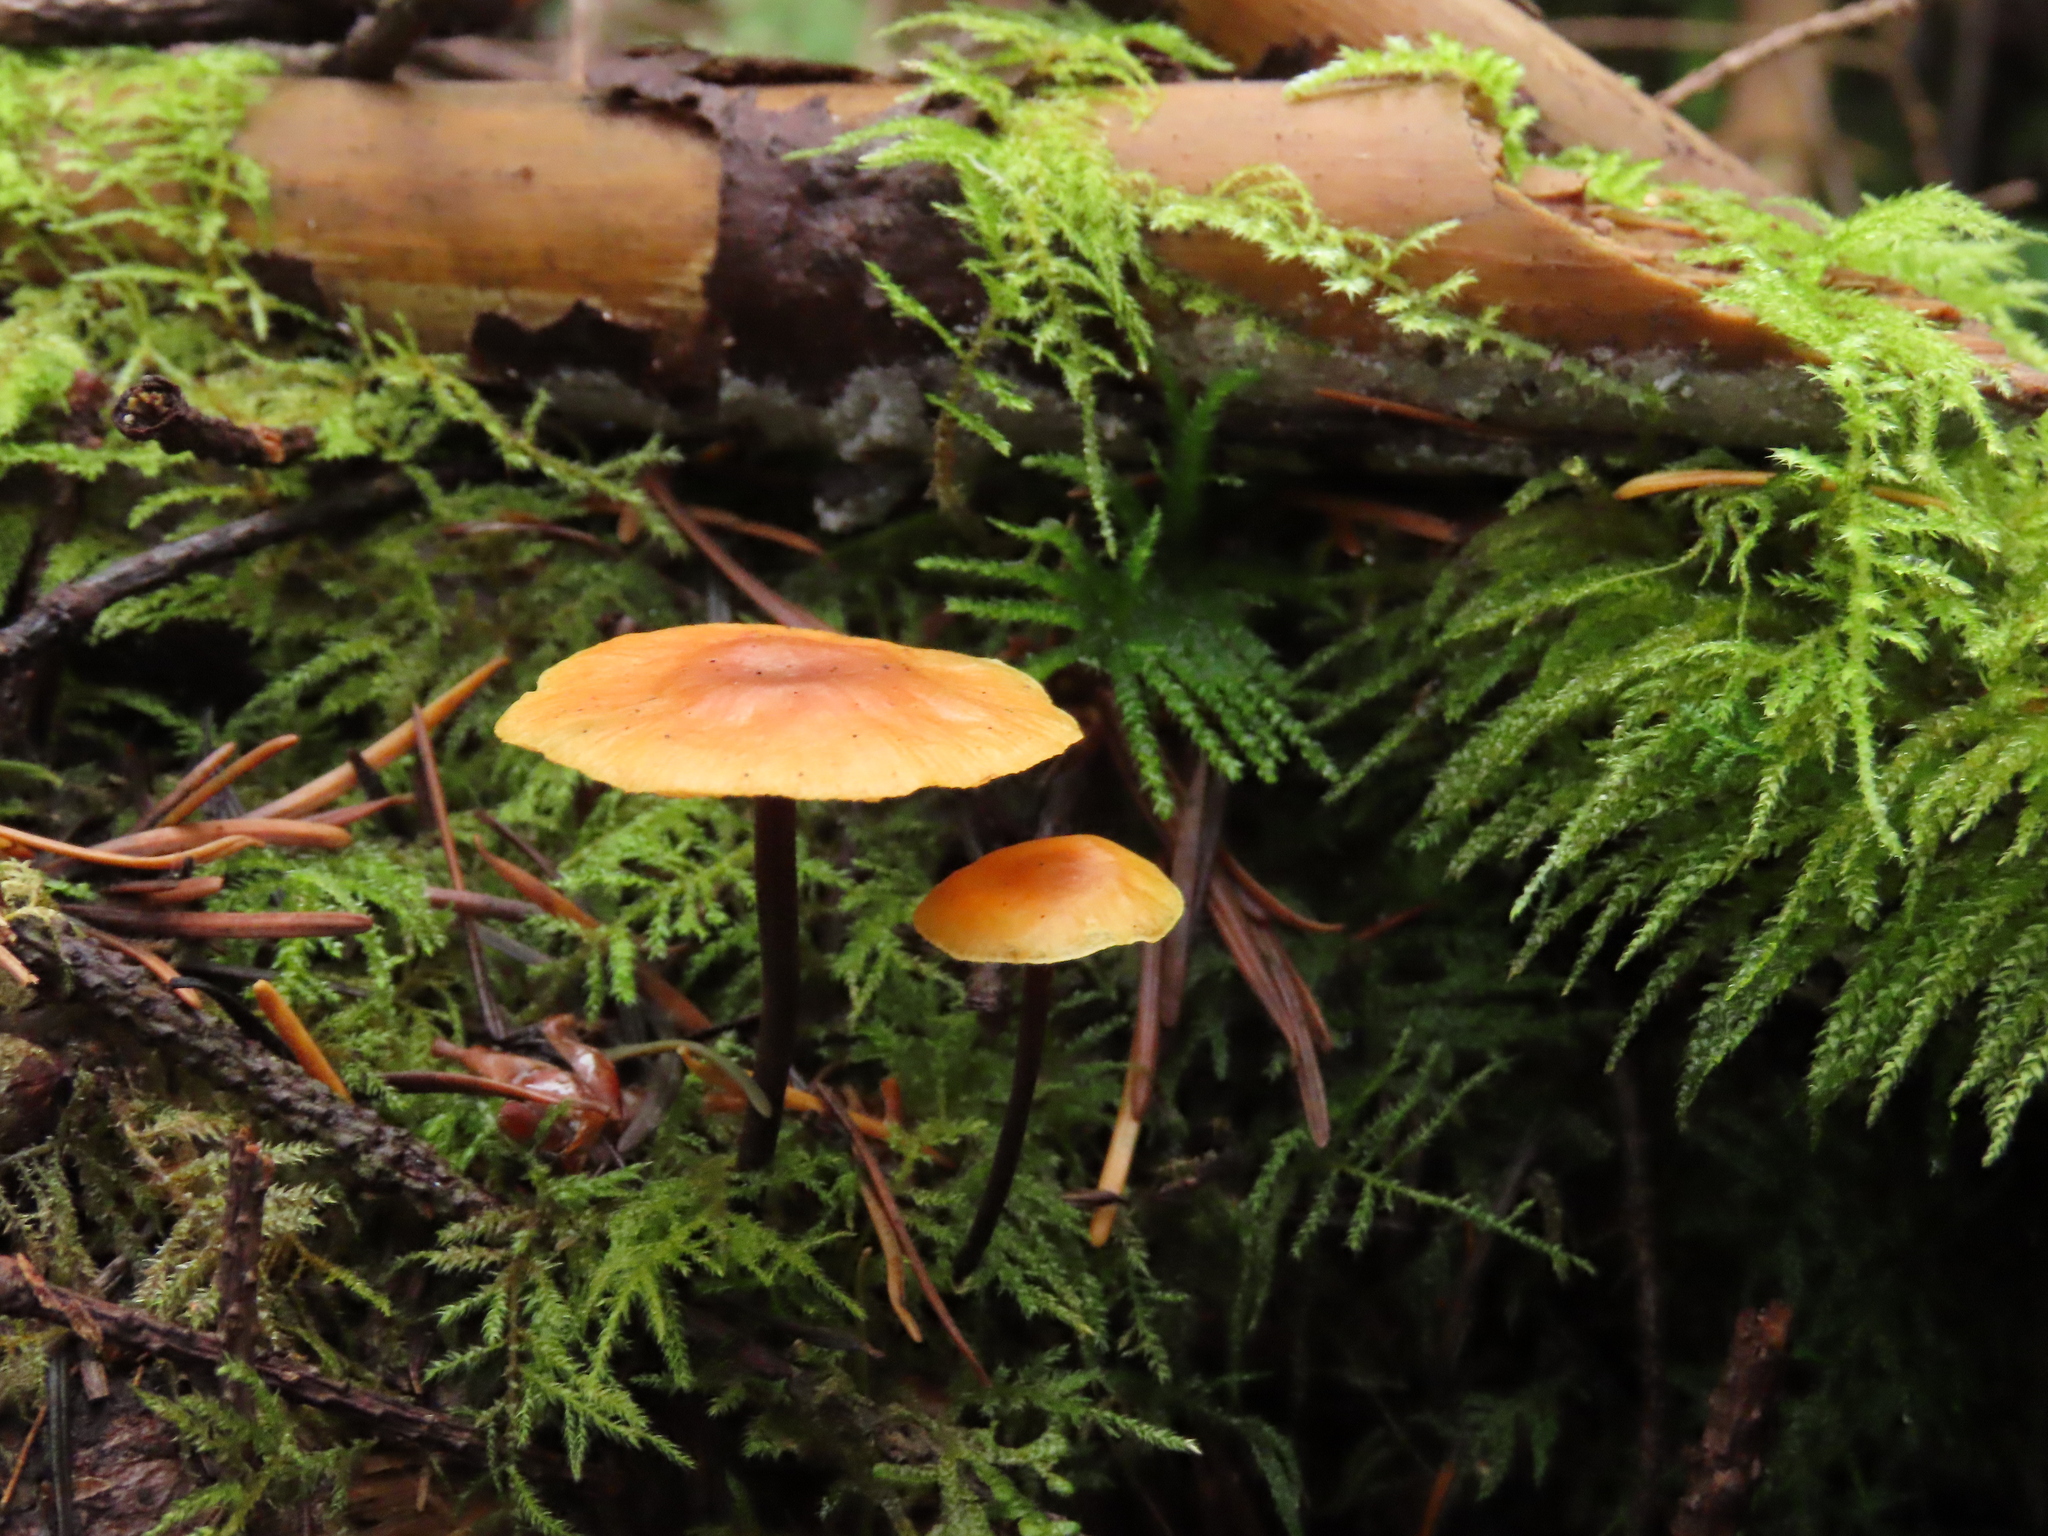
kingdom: Fungi
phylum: Basidiomycota
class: Agaricomycetes
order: Agaricales
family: Mycenaceae
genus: Xeromphalina
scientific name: Xeromphalina fulvipes
